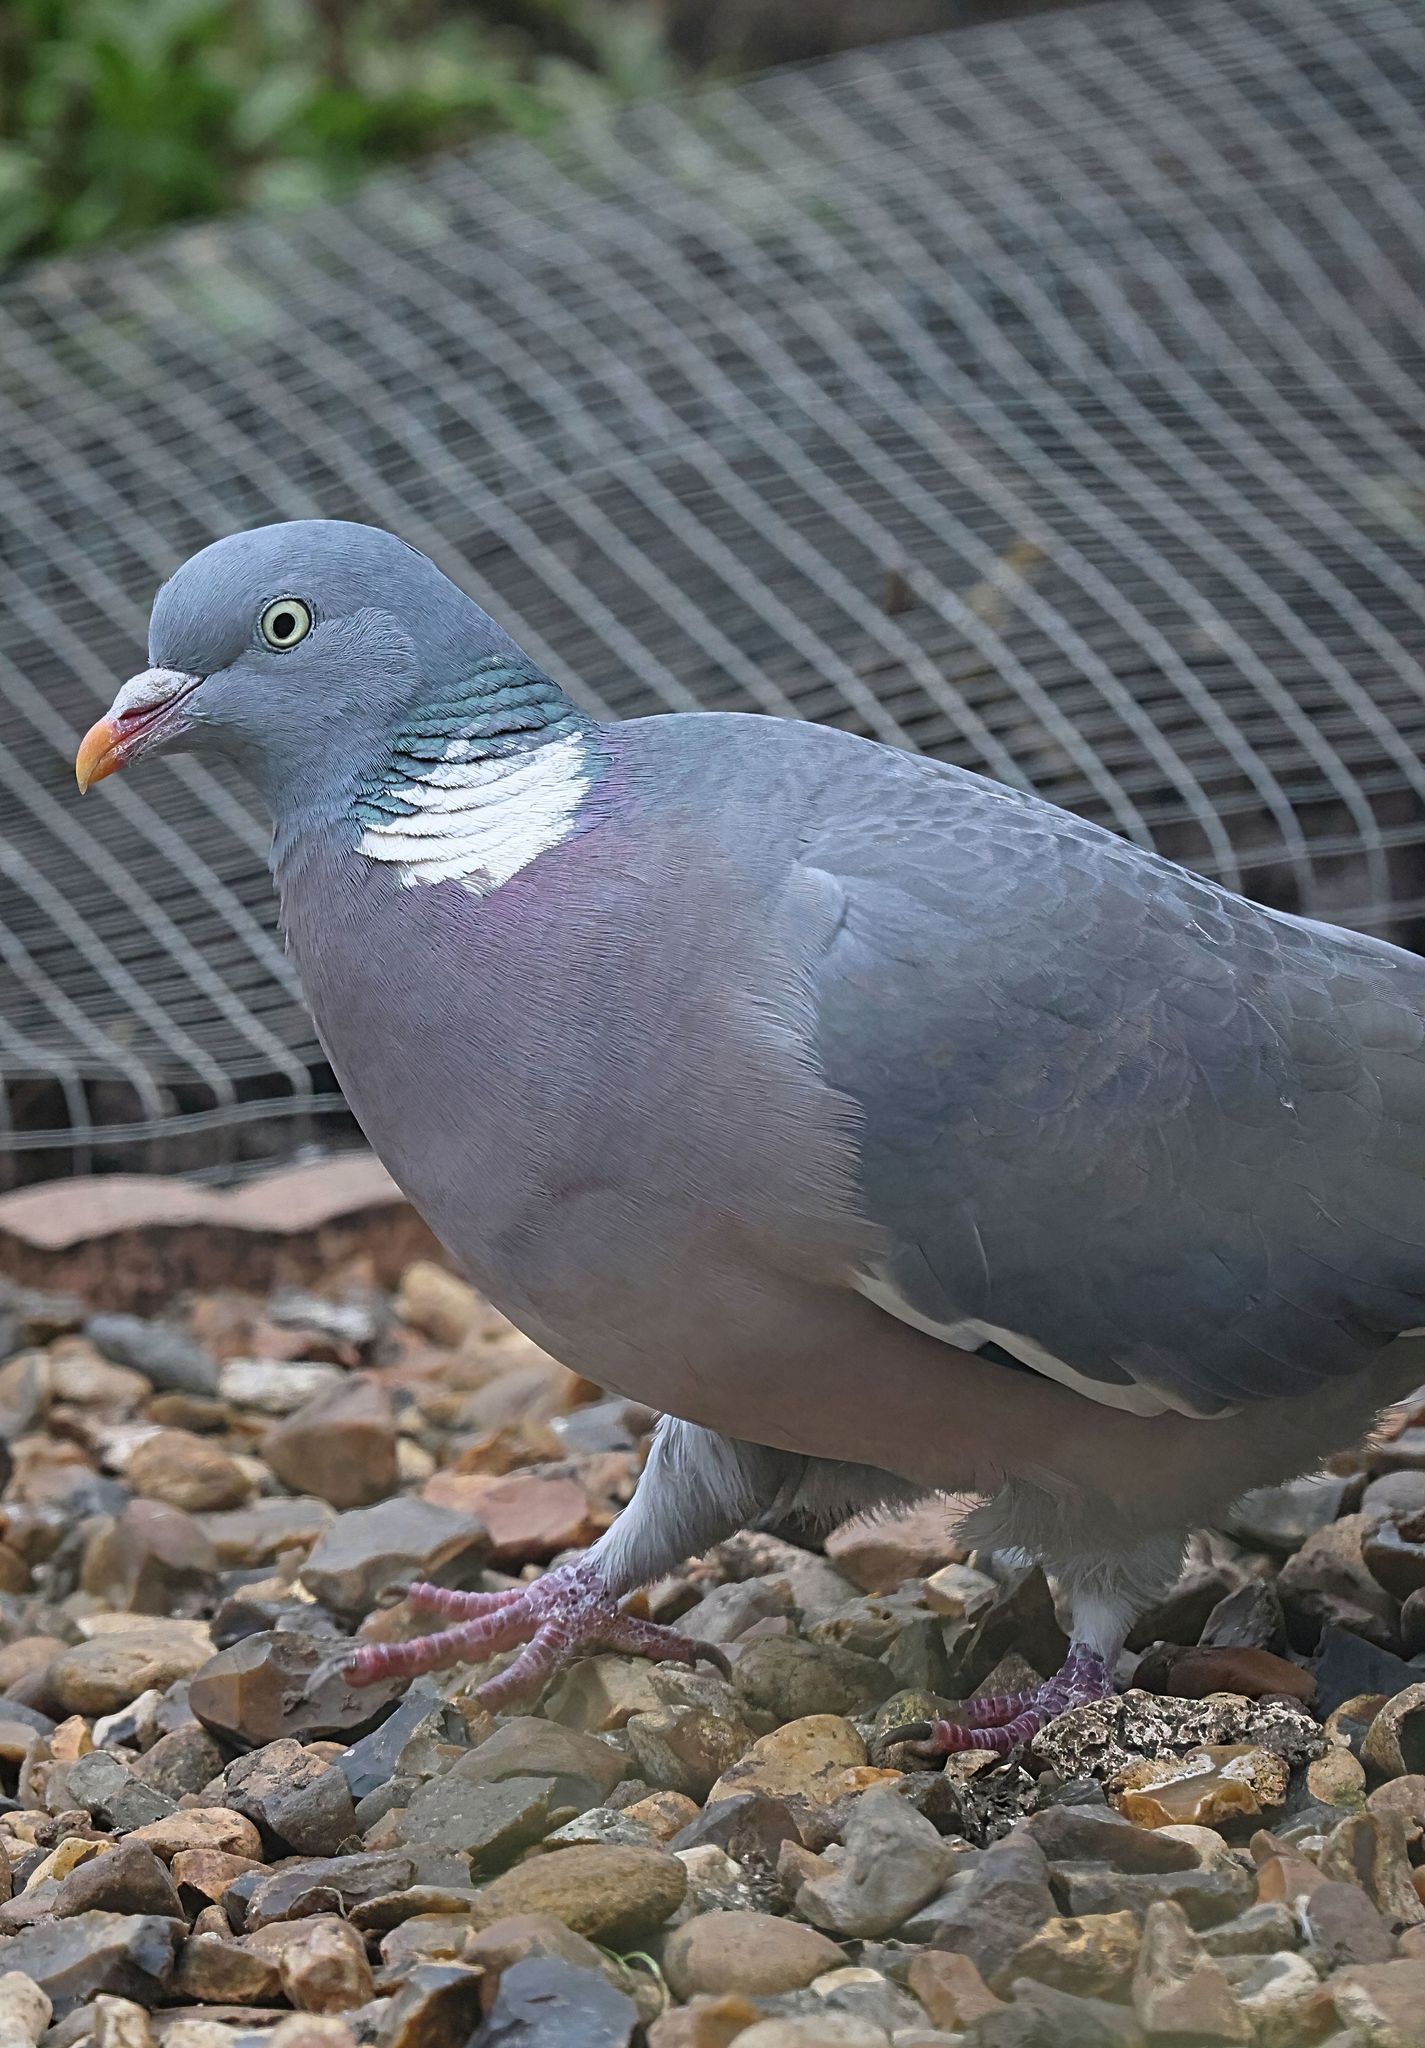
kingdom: Animalia
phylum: Chordata
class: Aves
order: Columbiformes
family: Columbidae
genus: Columba
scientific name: Columba palumbus
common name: Common wood pigeon
